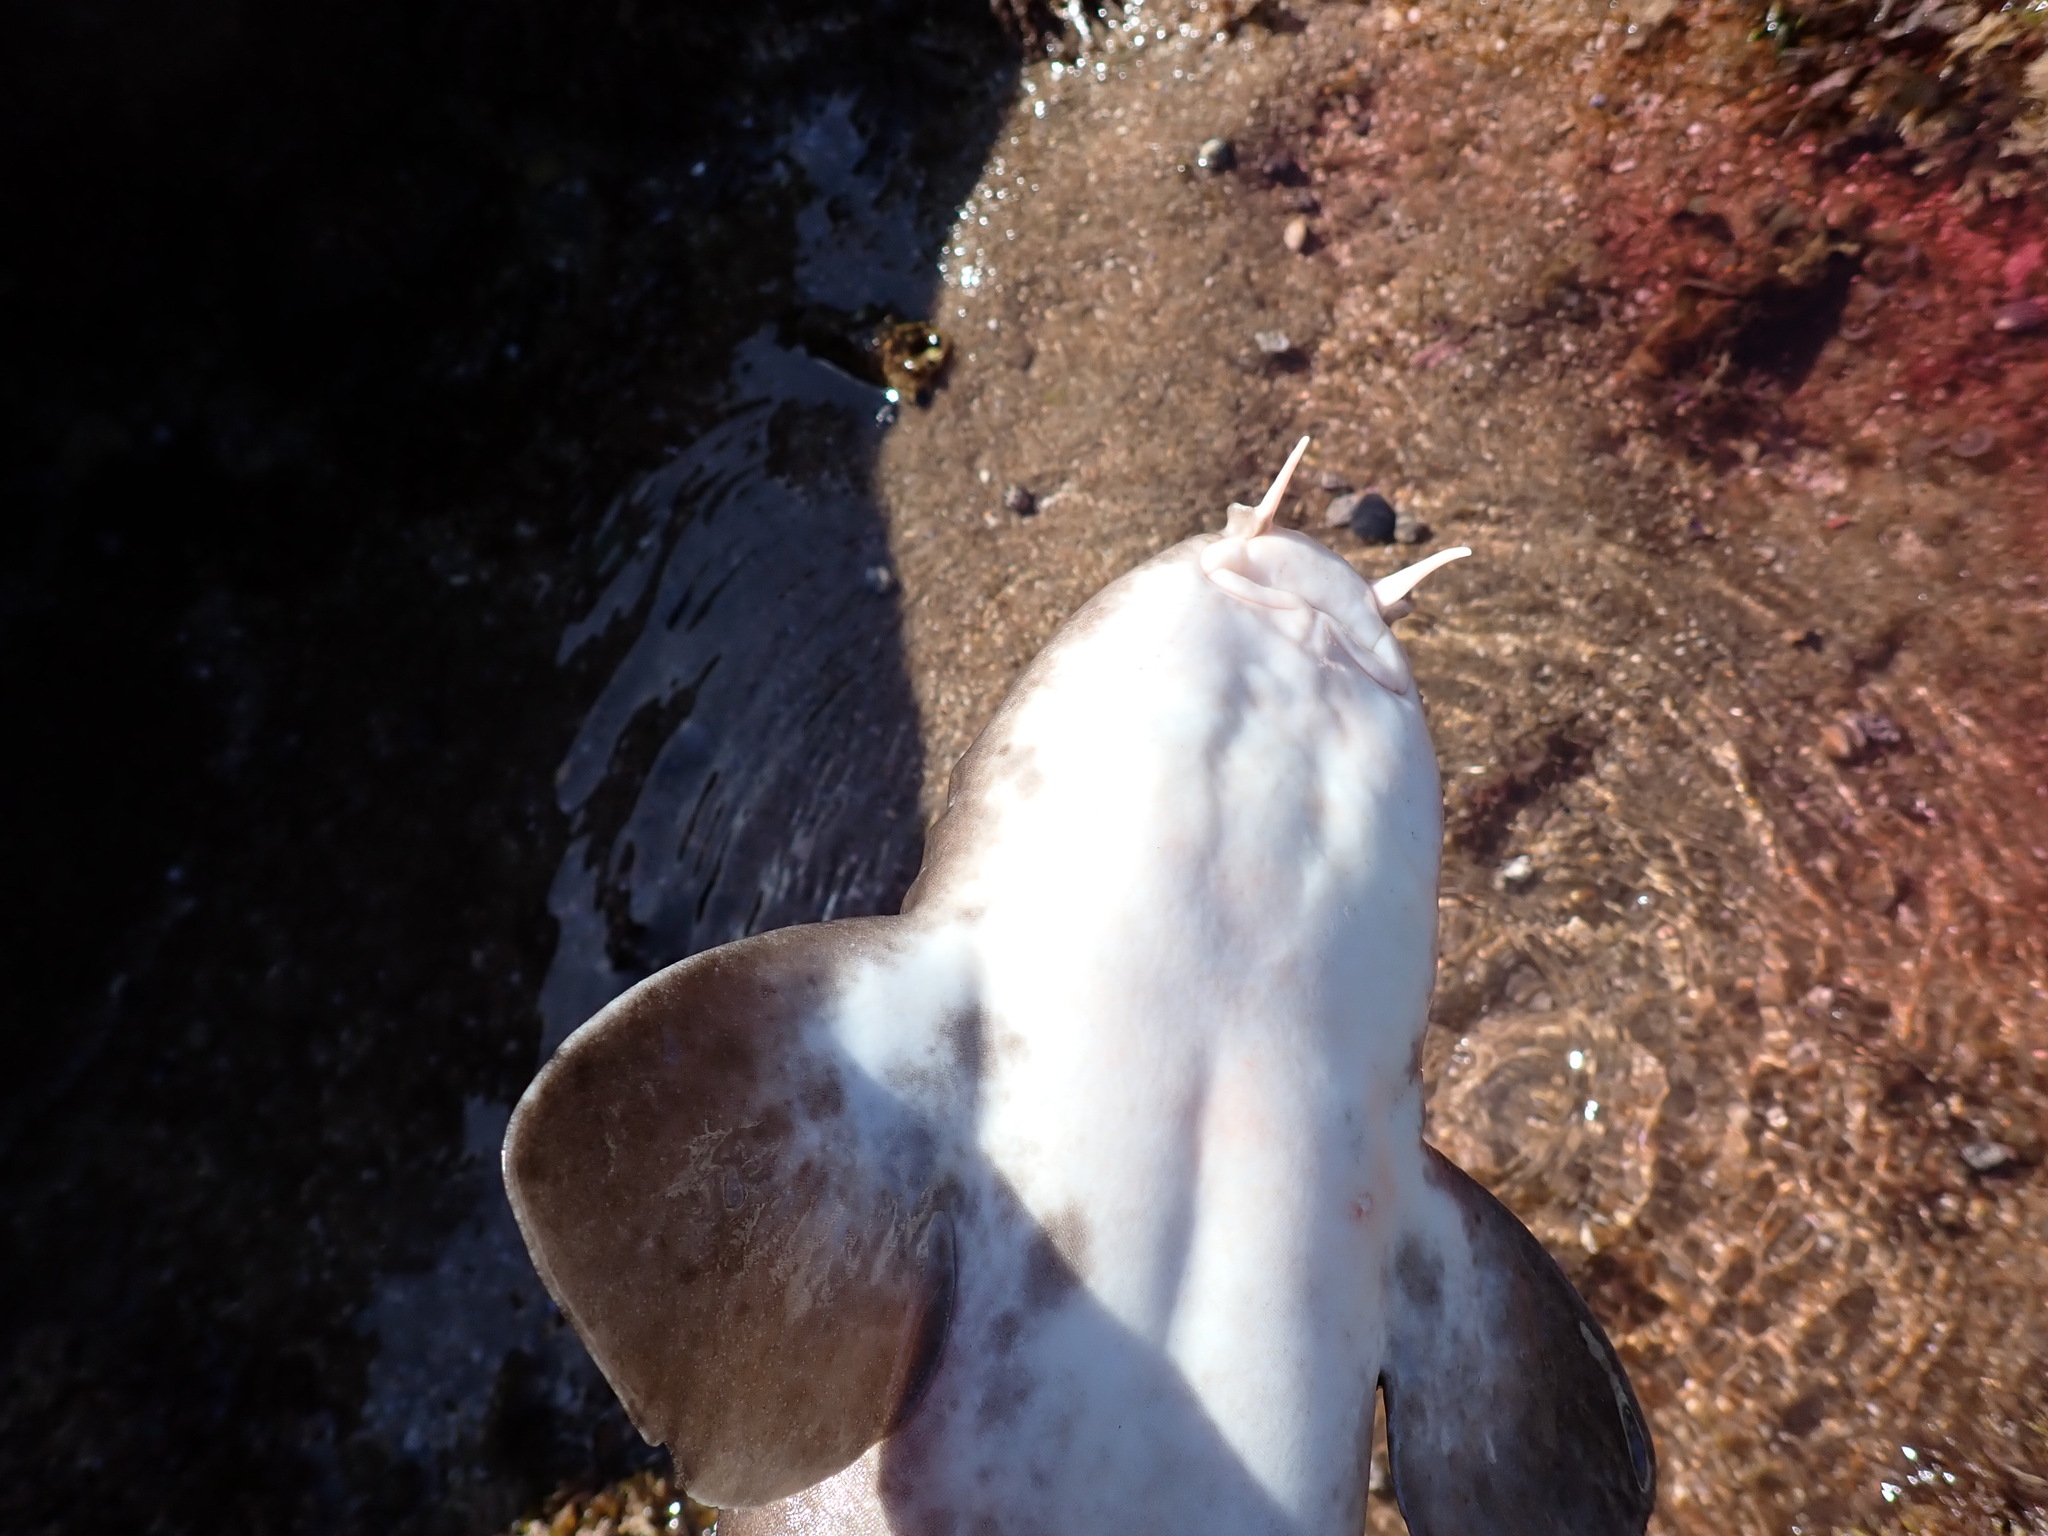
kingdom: Animalia
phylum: Chordata
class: Elasmobranchii
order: Orectolobiformes
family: Brachaeluridae
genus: Brachaelurus
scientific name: Brachaelurus waddi
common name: Blind shark
